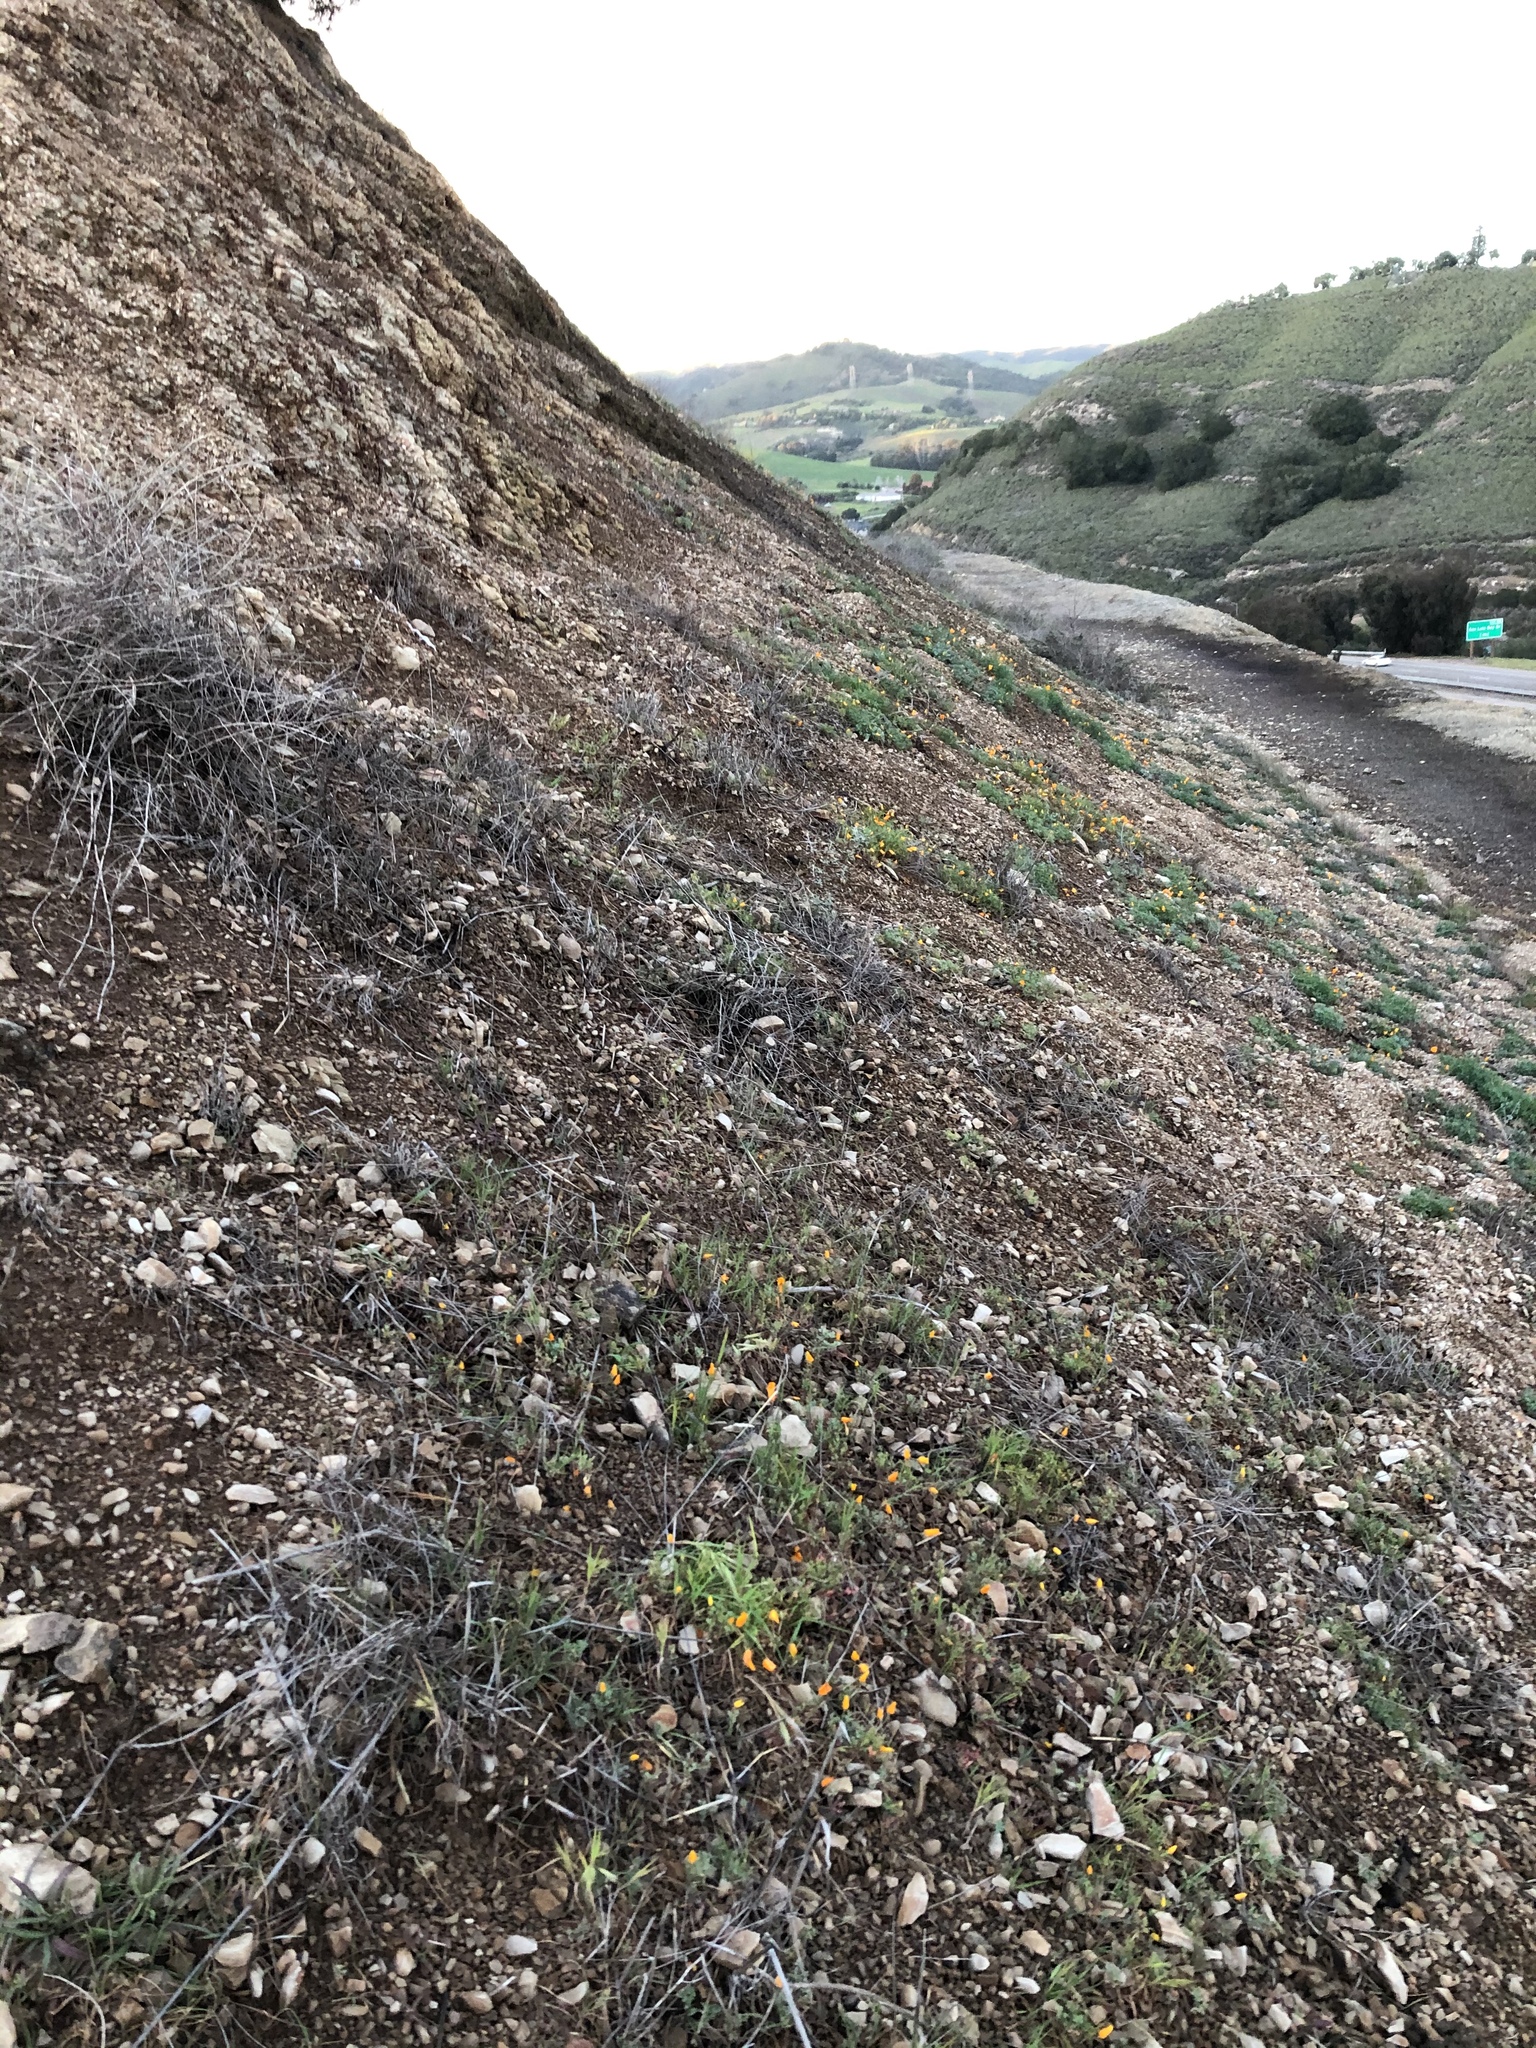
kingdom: Plantae
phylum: Tracheophyta
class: Magnoliopsida
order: Ranunculales
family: Papaveraceae
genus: Eschscholzia
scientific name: Eschscholzia caespitosa
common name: Tufted california-poppy
